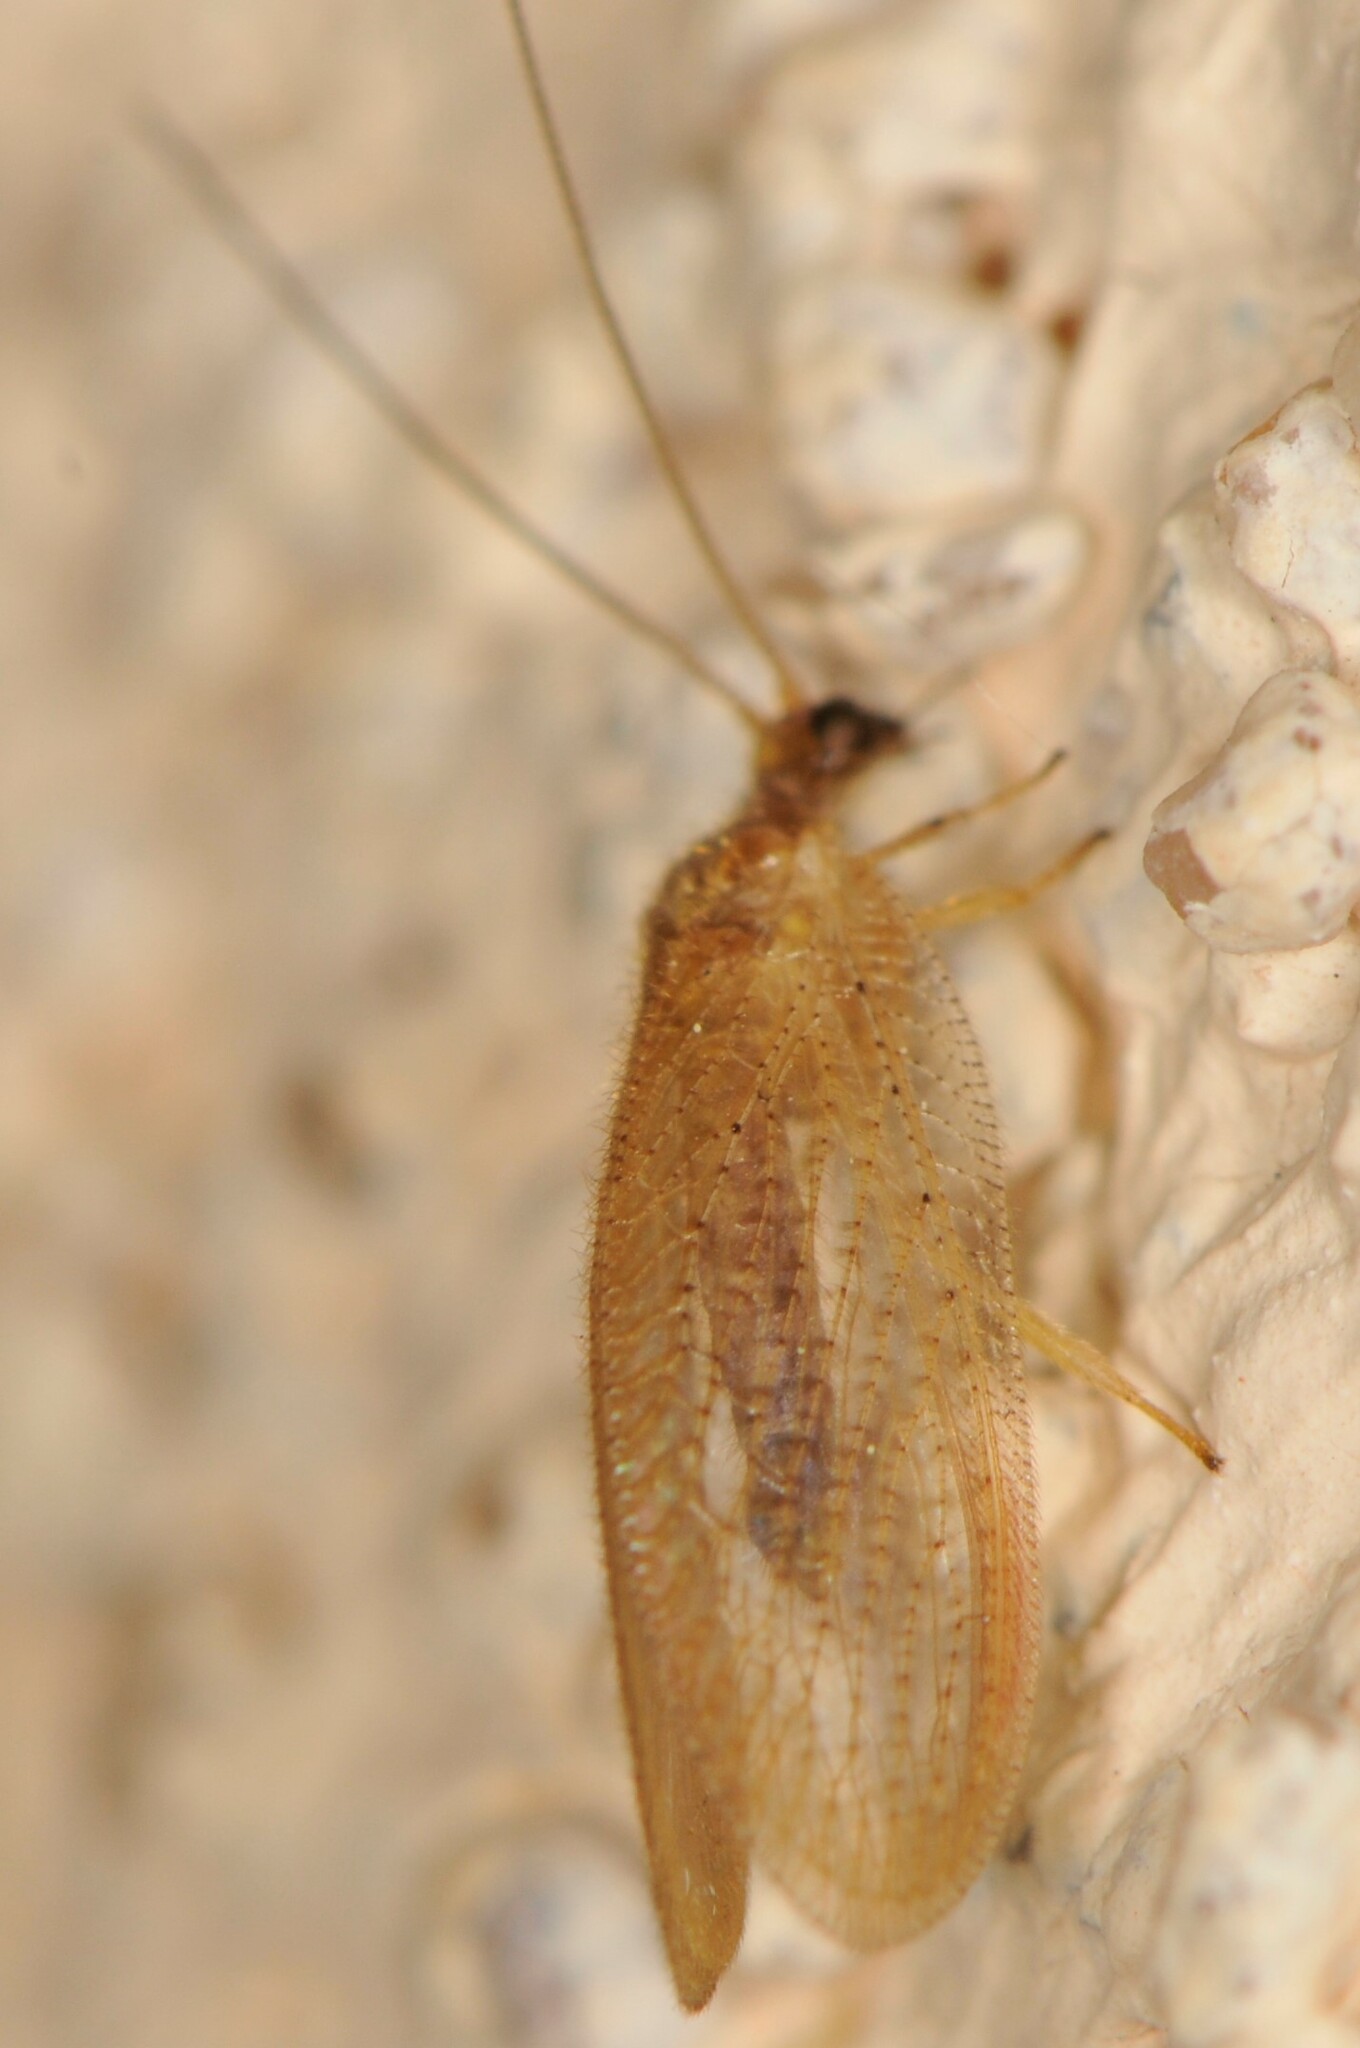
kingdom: Animalia
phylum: Arthropoda
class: Insecta
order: Neuroptera
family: Hemerobiidae
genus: Hemerobius
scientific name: Hemerobius
